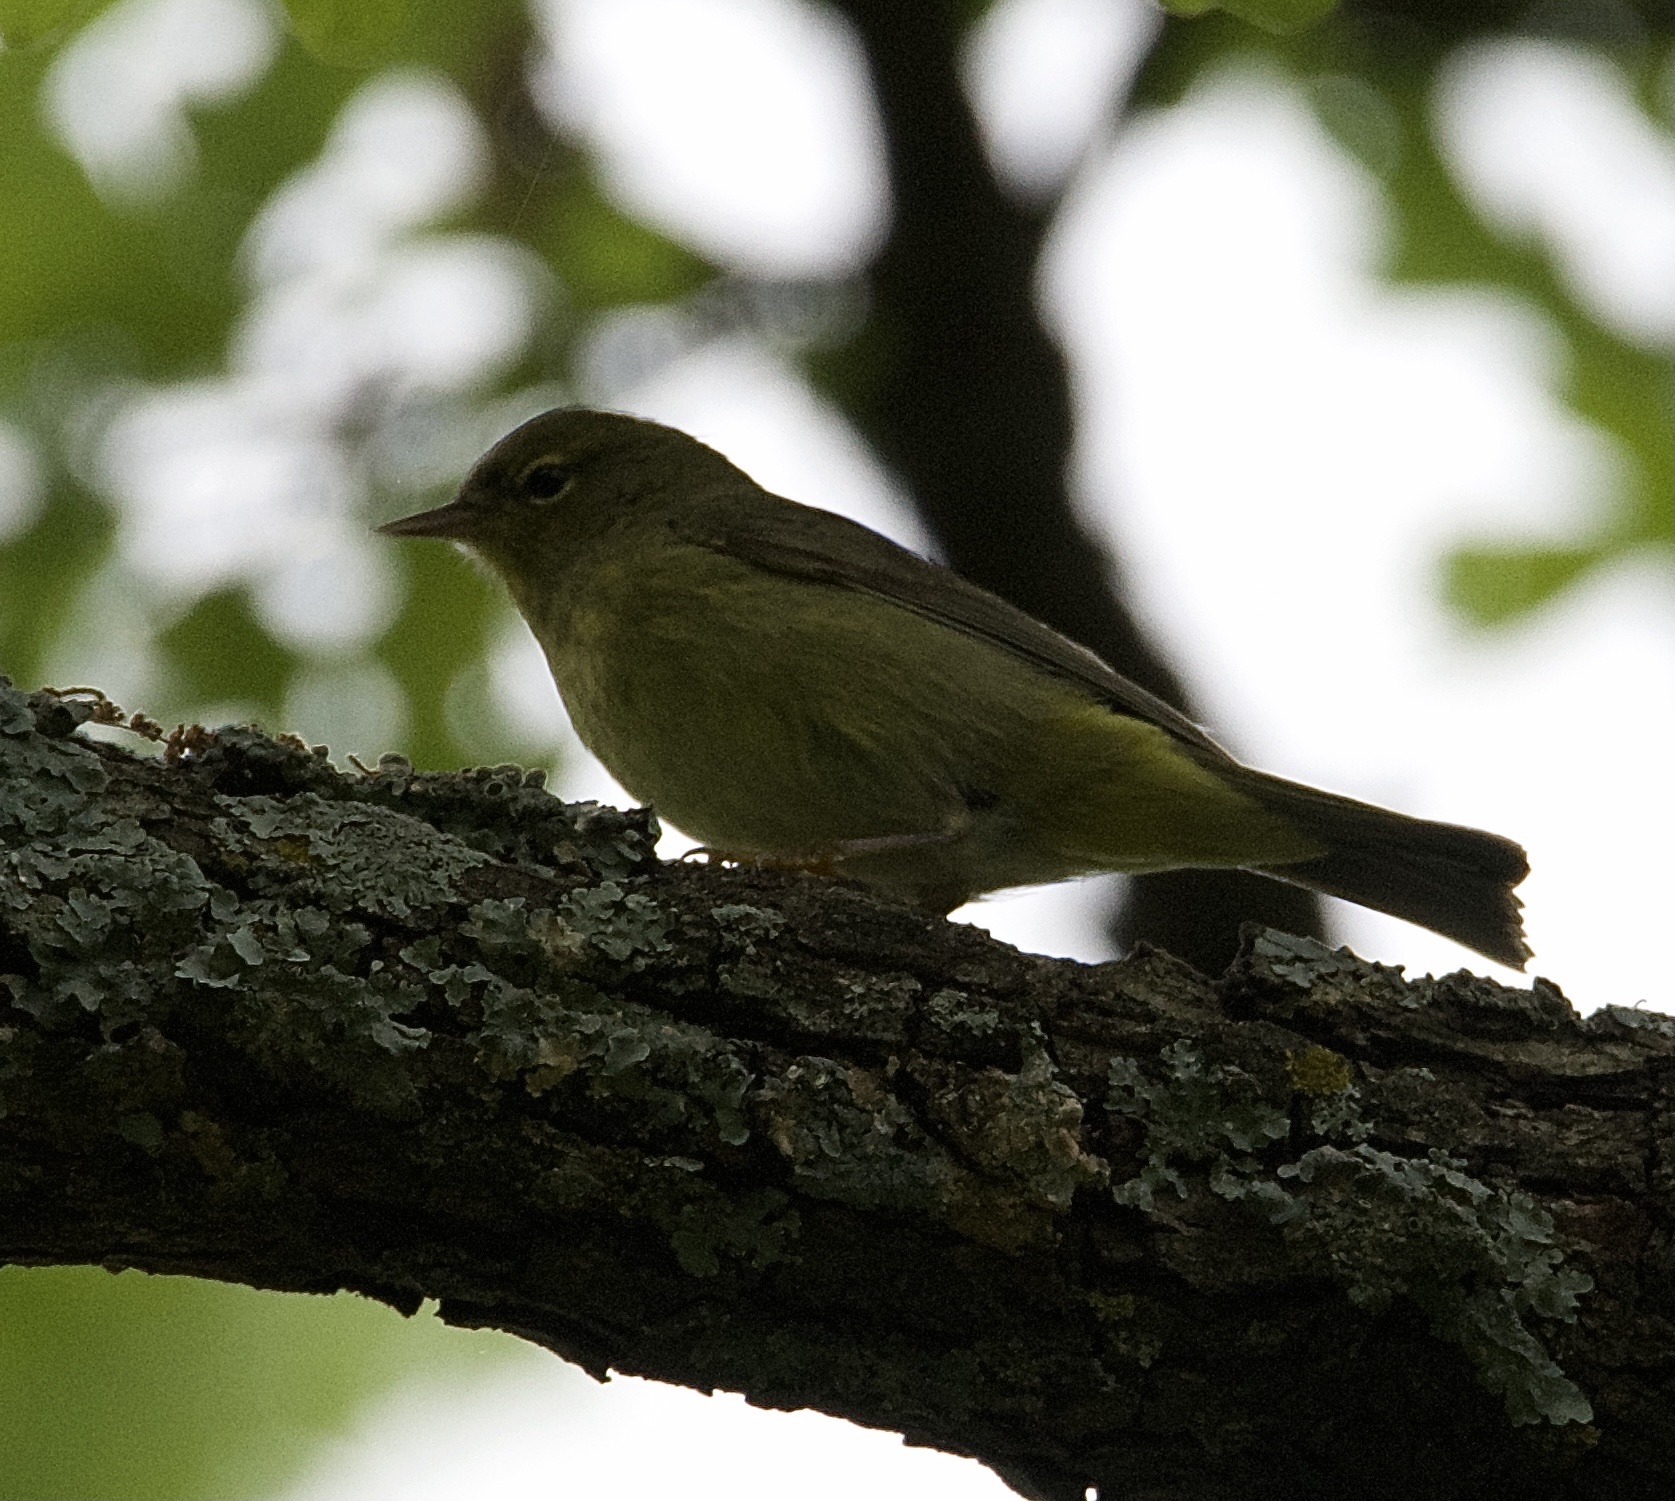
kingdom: Animalia
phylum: Chordata
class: Aves
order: Passeriformes
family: Parulidae
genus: Leiothlypis
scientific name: Leiothlypis celata
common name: Orange-crowned warbler
